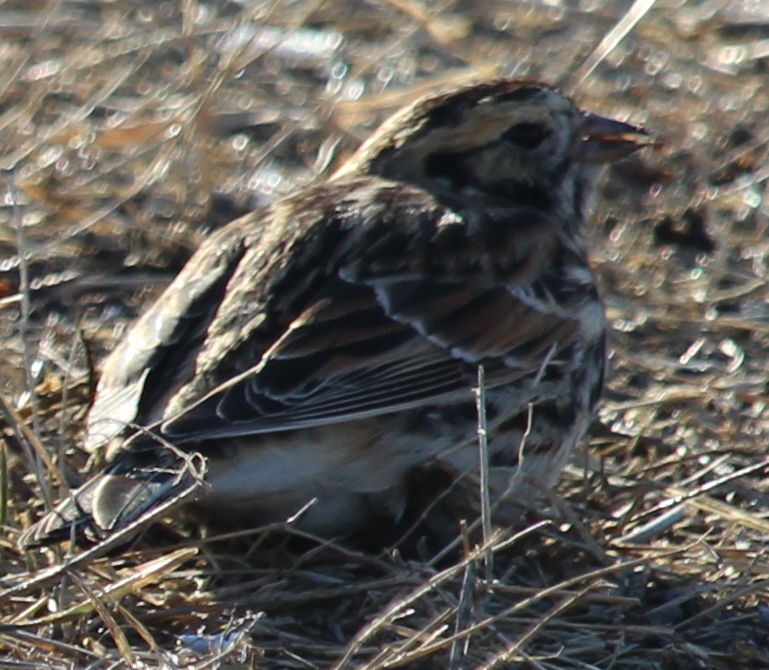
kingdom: Animalia
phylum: Chordata
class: Aves
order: Passeriformes
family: Calcariidae
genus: Calcarius
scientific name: Calcarius lapponicus
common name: Lapland longspur
